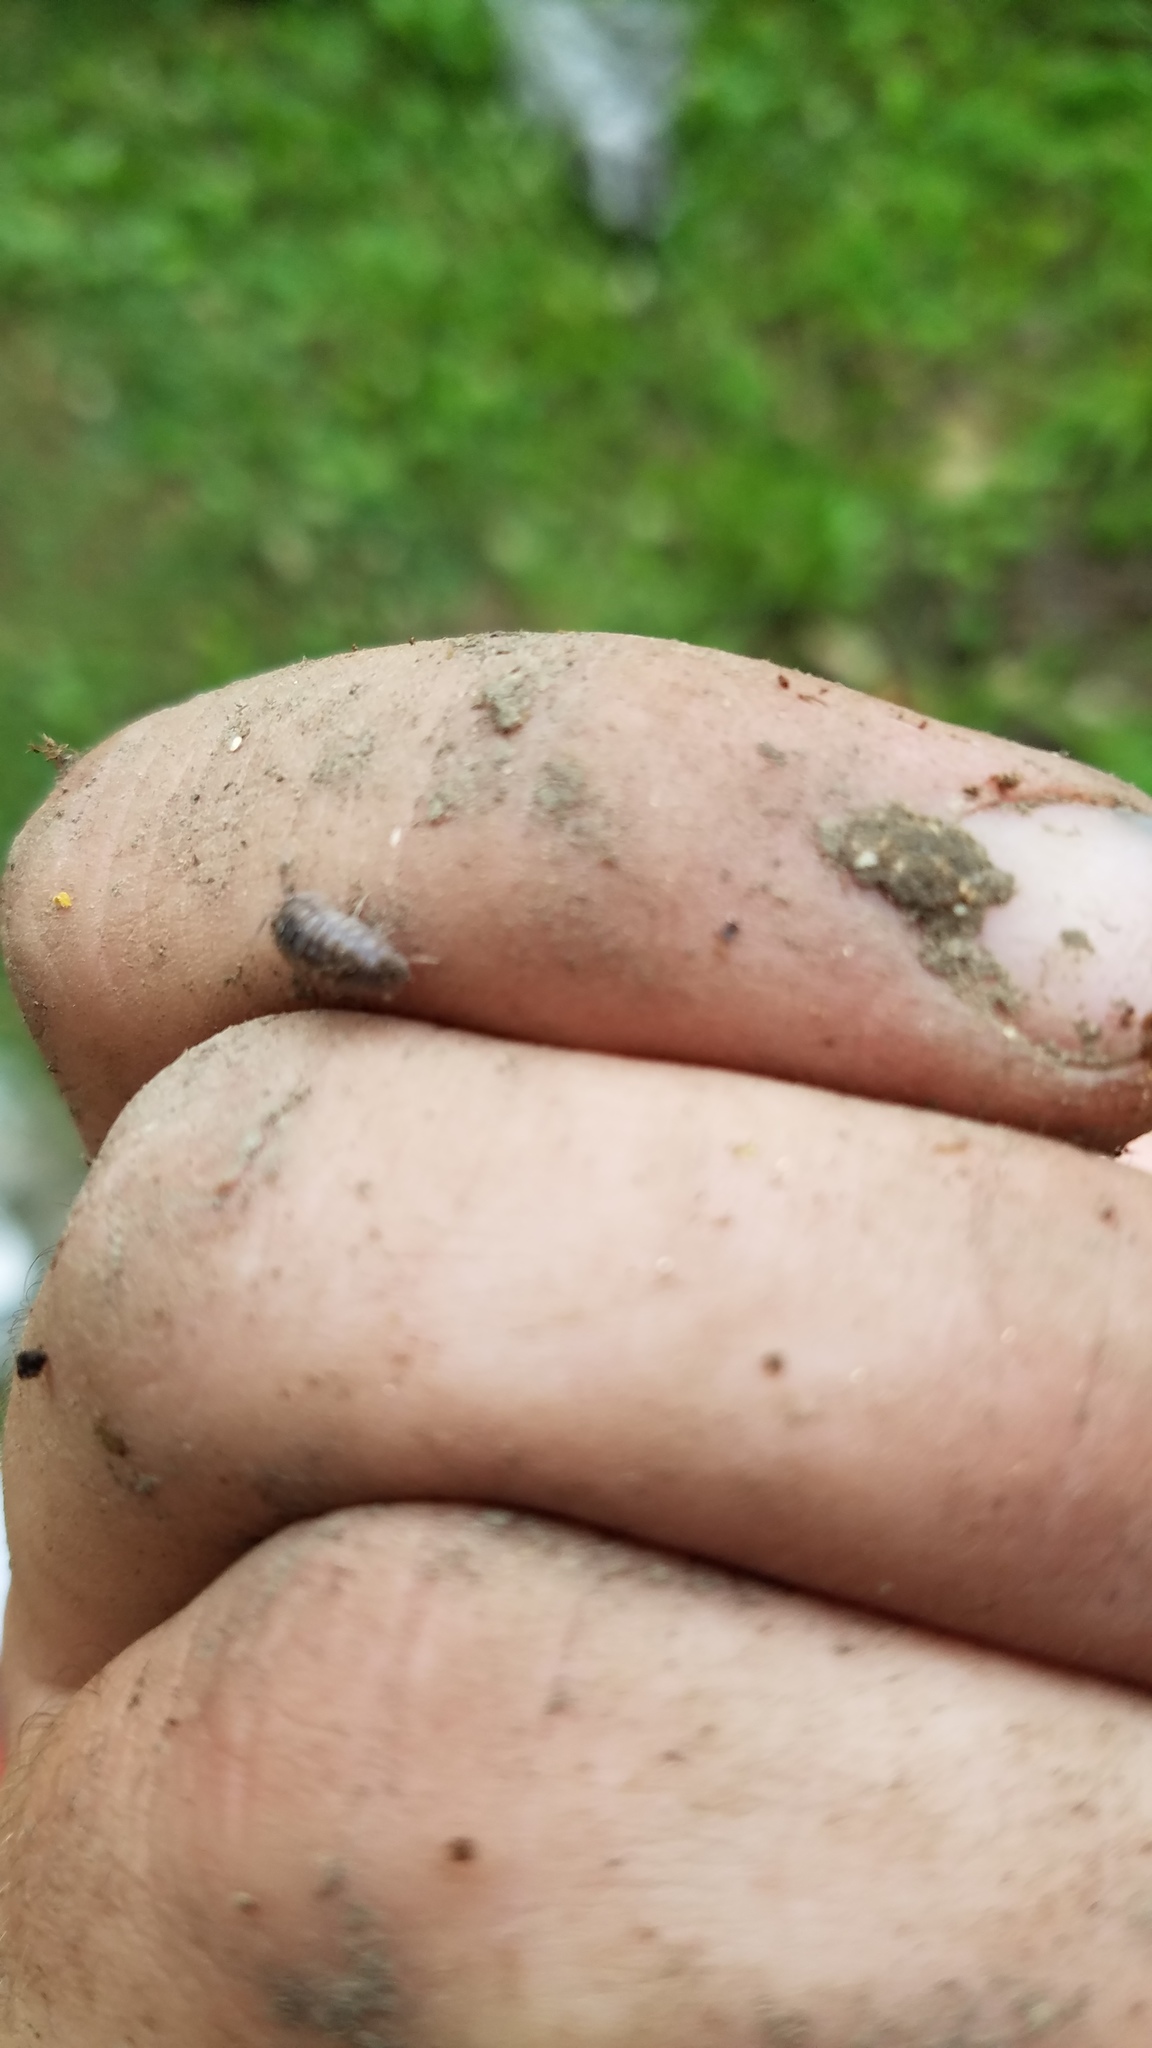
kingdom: Animalia
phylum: Arthropoda
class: Malacostraca
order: Isopoda
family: Armadillidiidae
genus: Armadillidium
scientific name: Armadillidium nasatum
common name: Isopod
